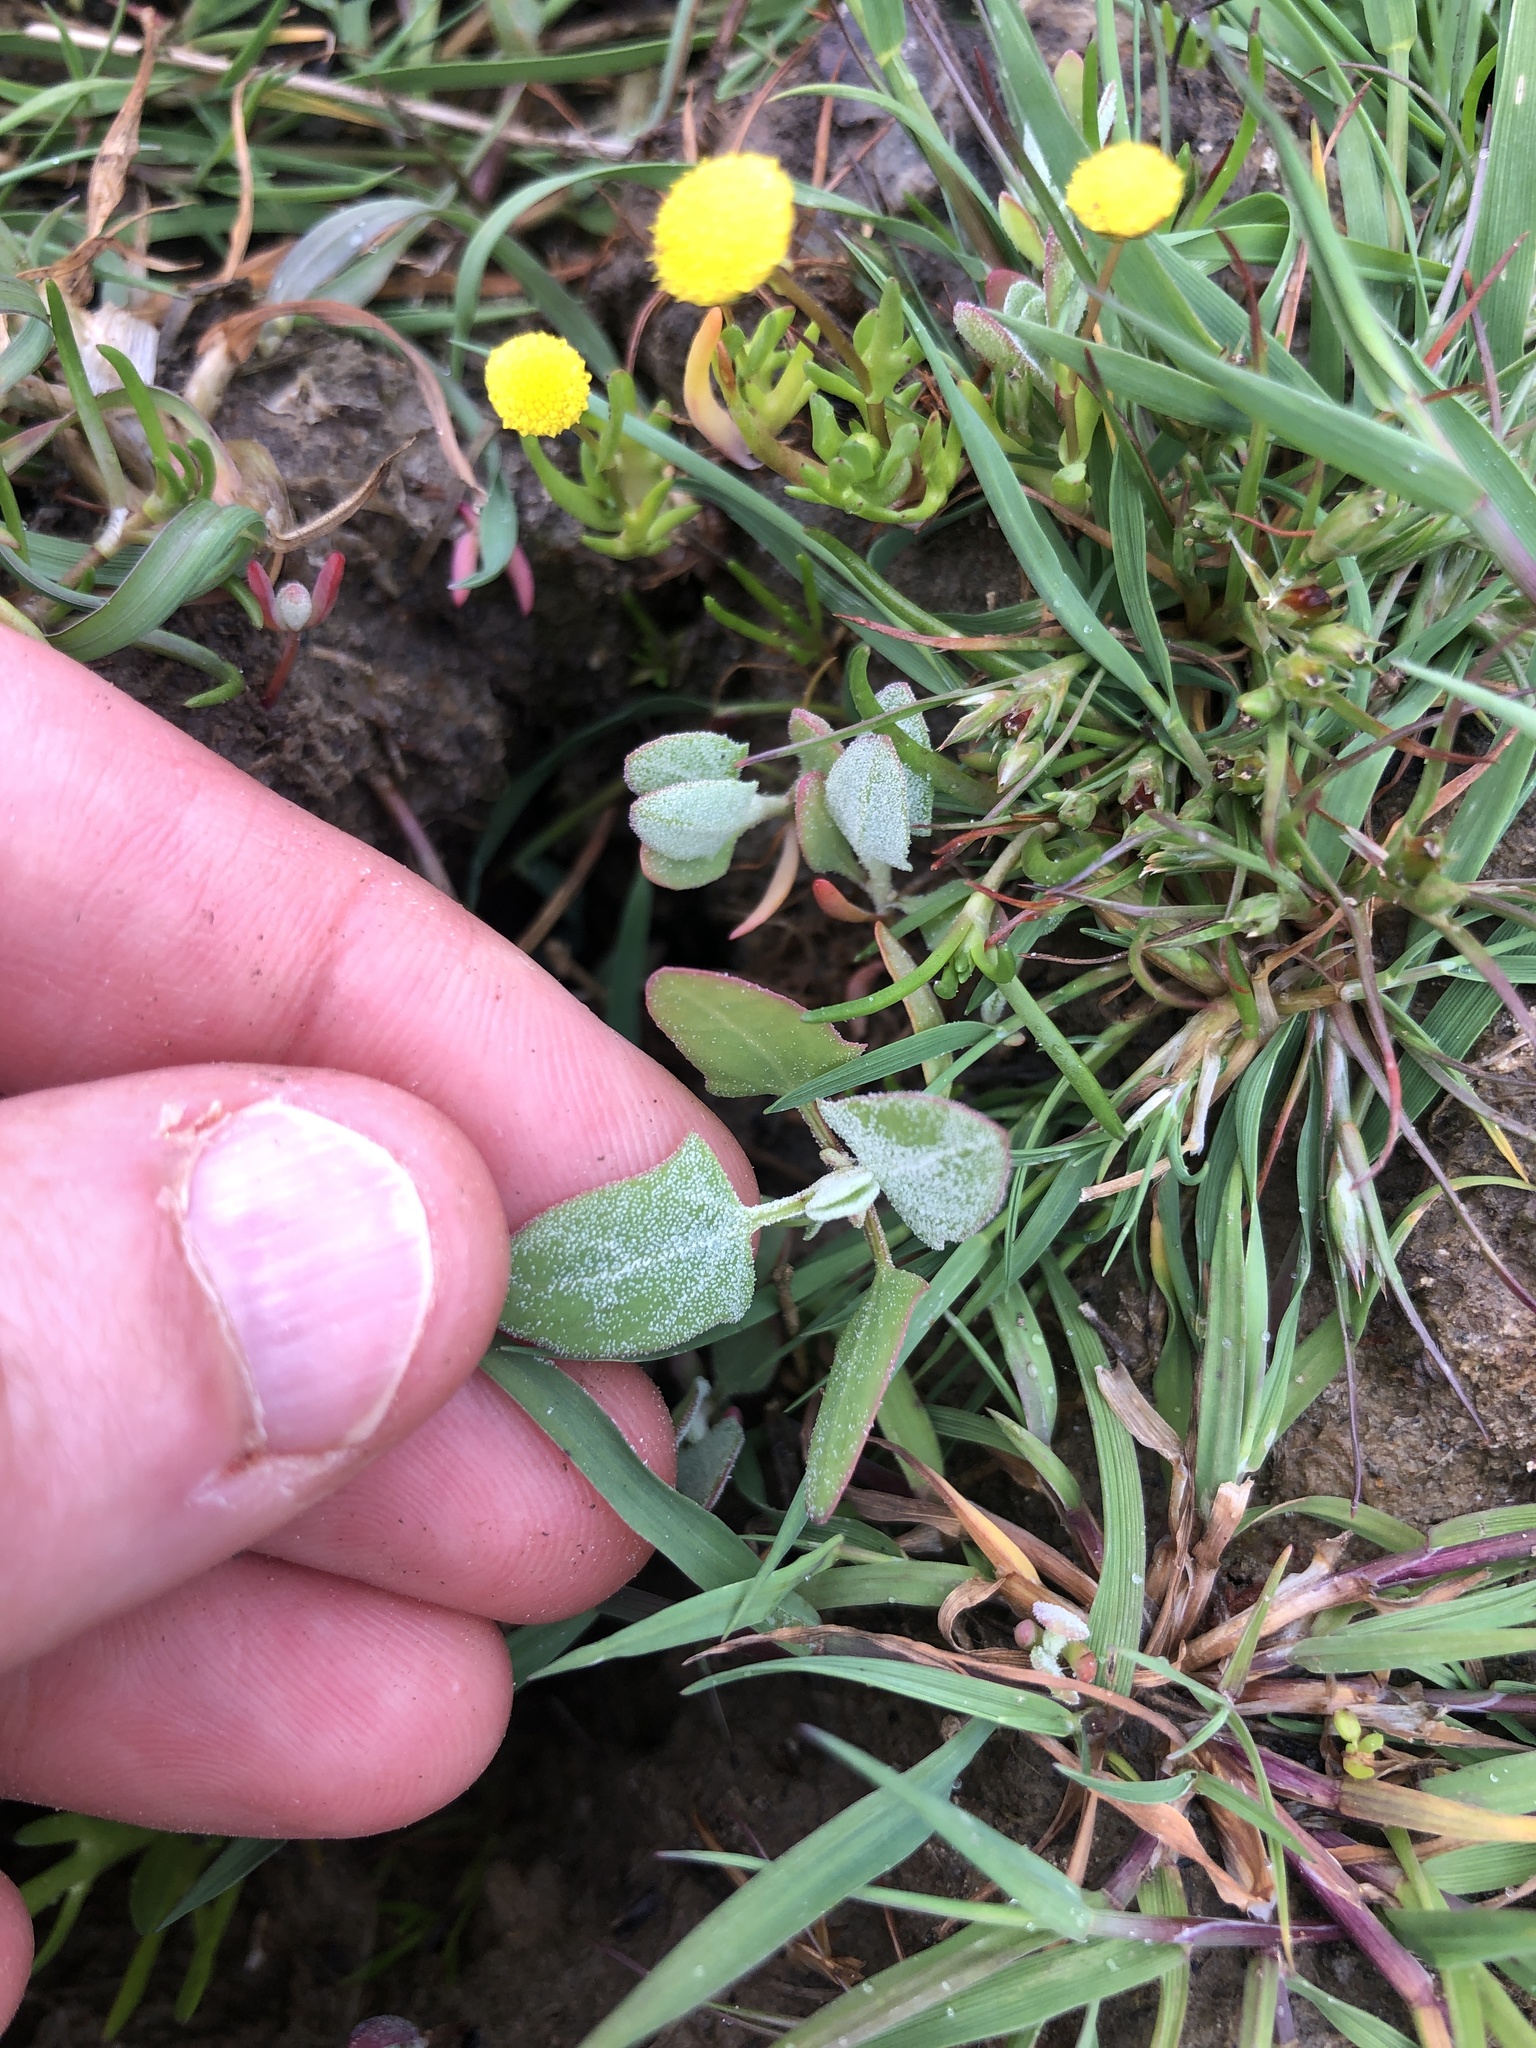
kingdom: Plantae
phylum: Tracheophyta
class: Magnoliopsida
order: Caryophyllales
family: Amaranthaceae
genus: Atriplex
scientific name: Atriplex prostrata
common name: Spear-leaved orache
